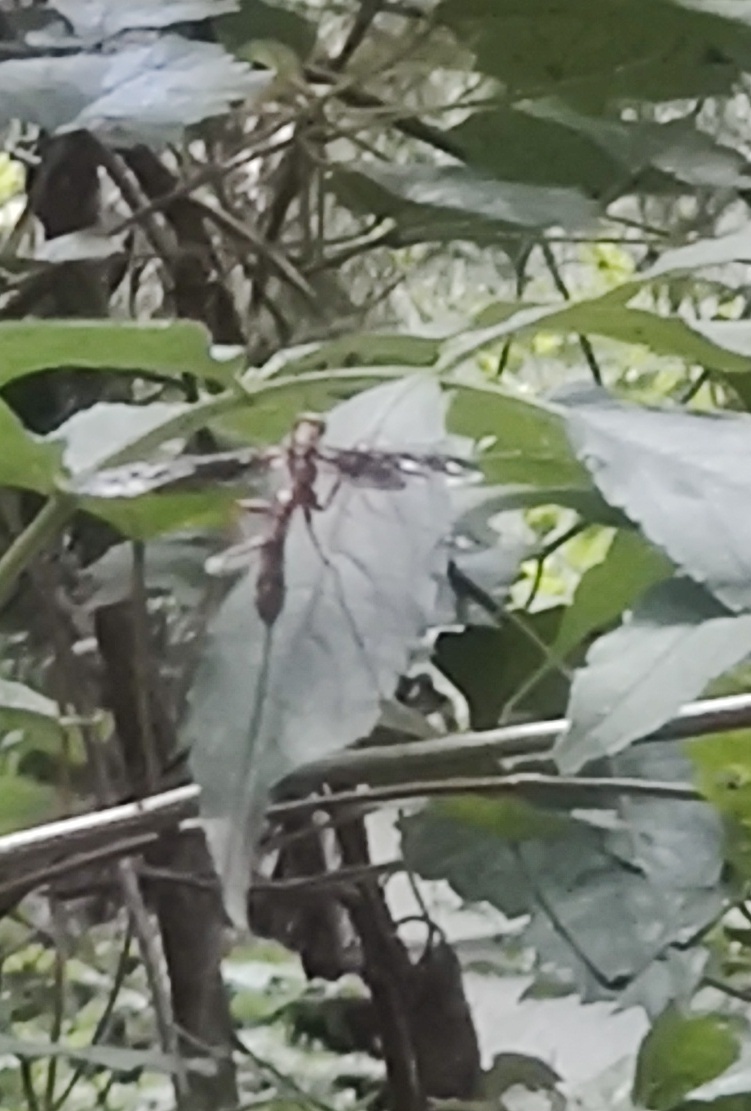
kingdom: Animalia
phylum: Arthropoda
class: Insecta
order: Hymenoptera
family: Ichneumonidae
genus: Megarhyssa
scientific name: Megarhyssa macrura
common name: Long-tailed giant ichneumonid wasp
